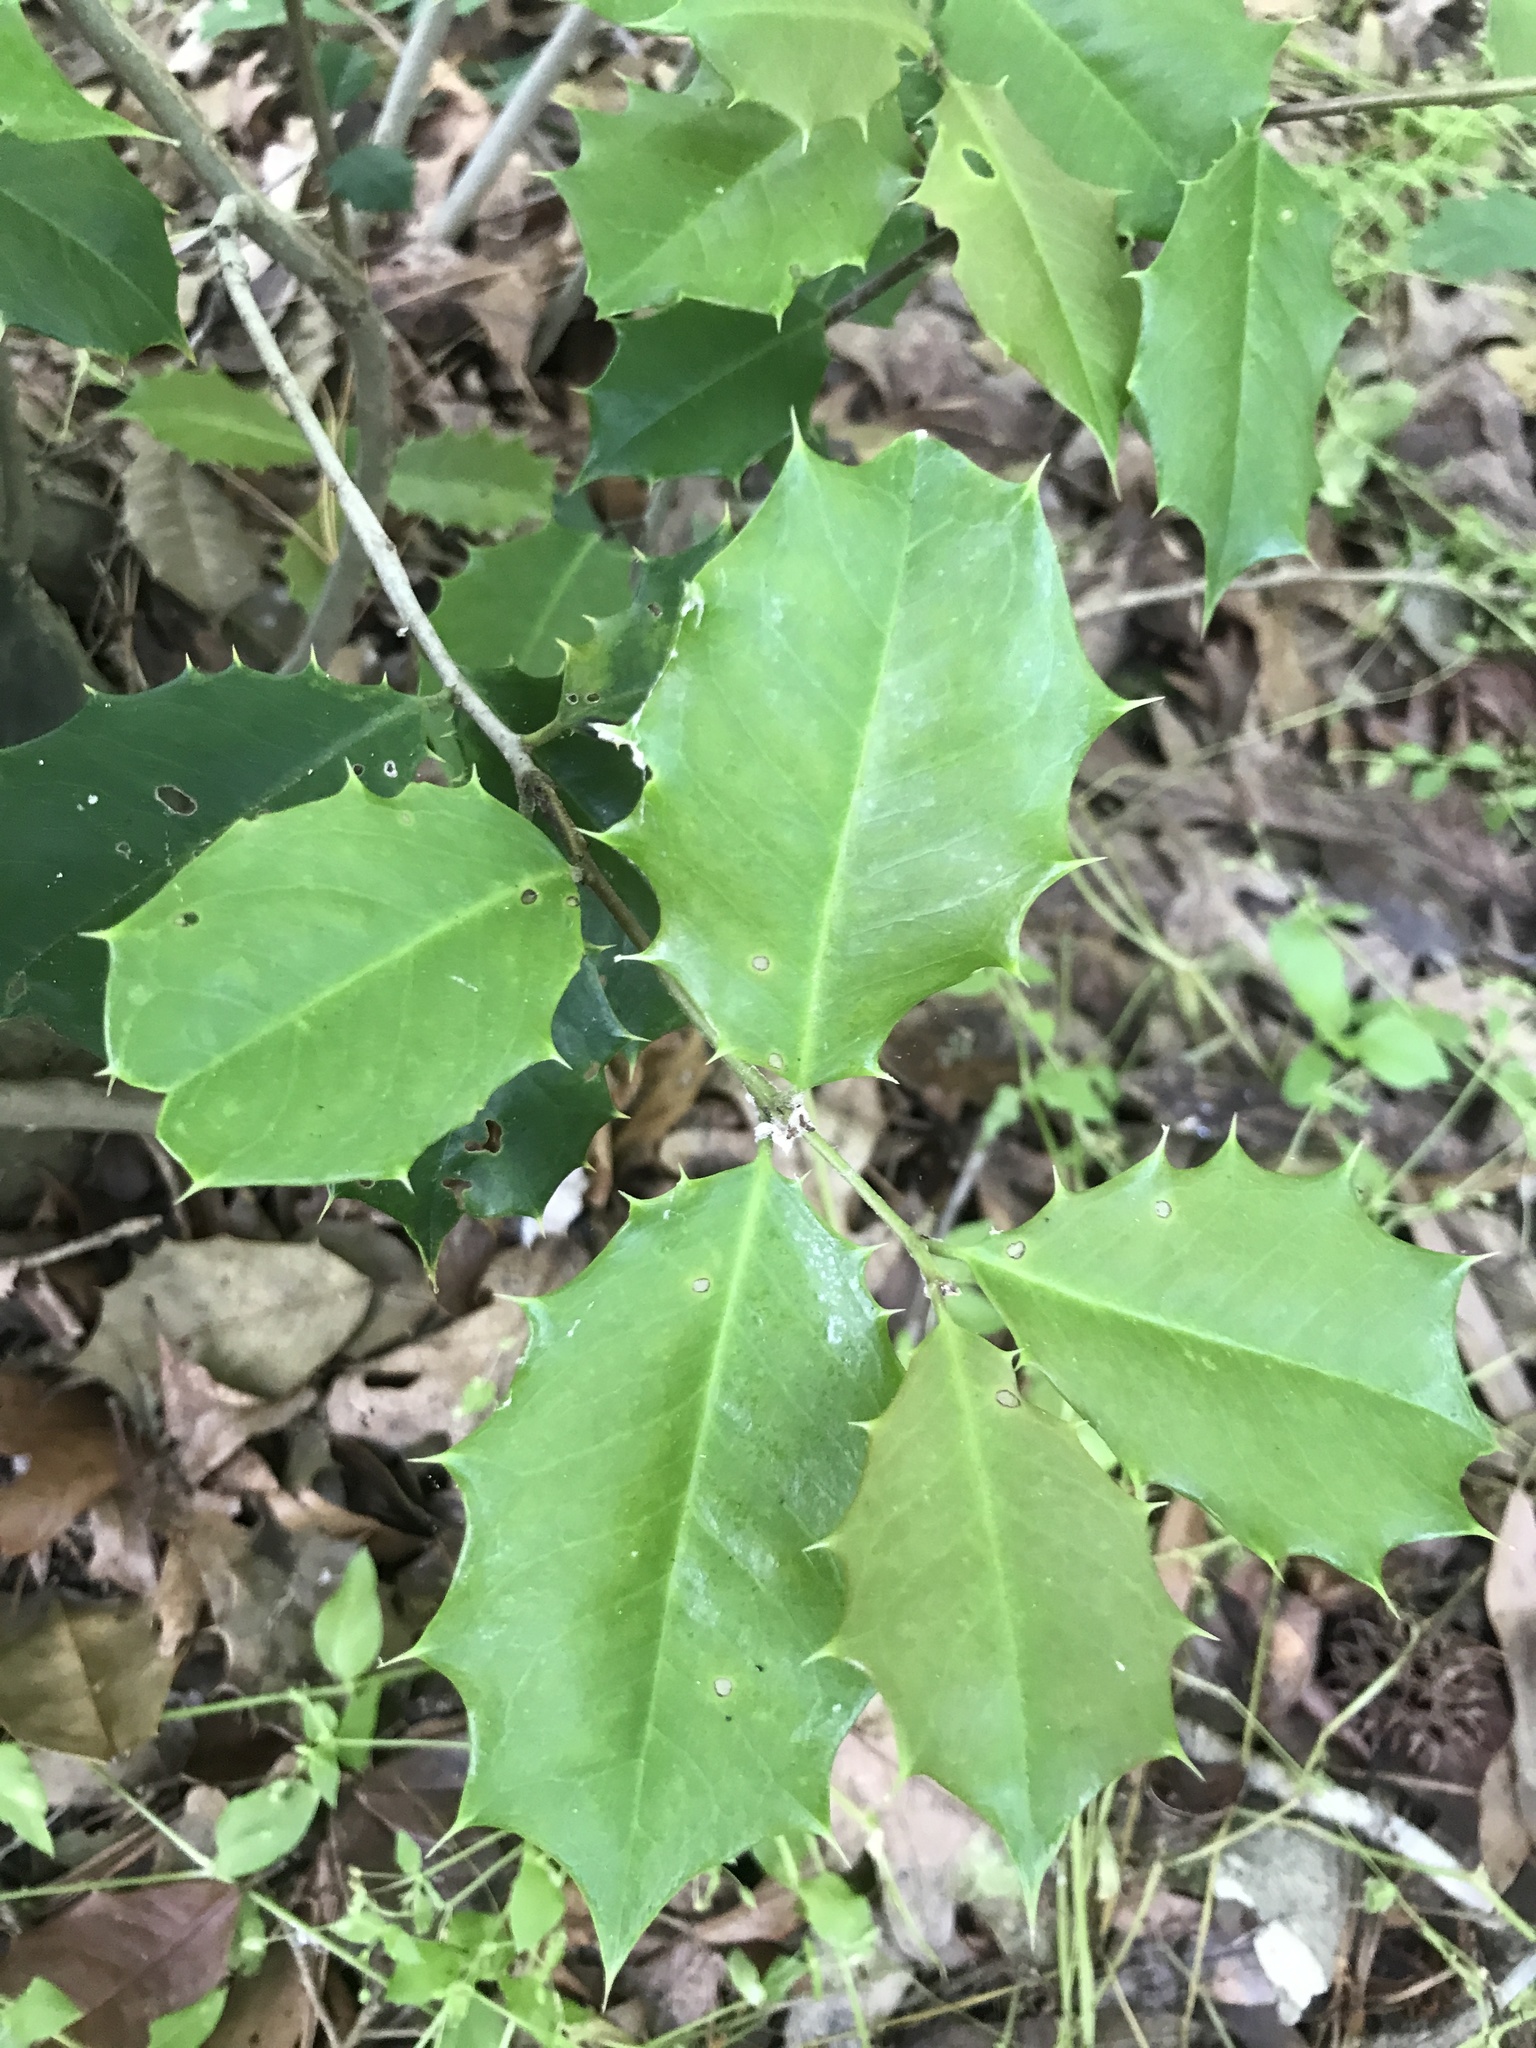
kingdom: Plantae
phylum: Tracheophyta
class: Magnoliopsida
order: Aquifoliales
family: Aquifoliaceae
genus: Ilex
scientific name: Ilex opaca
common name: American holly
